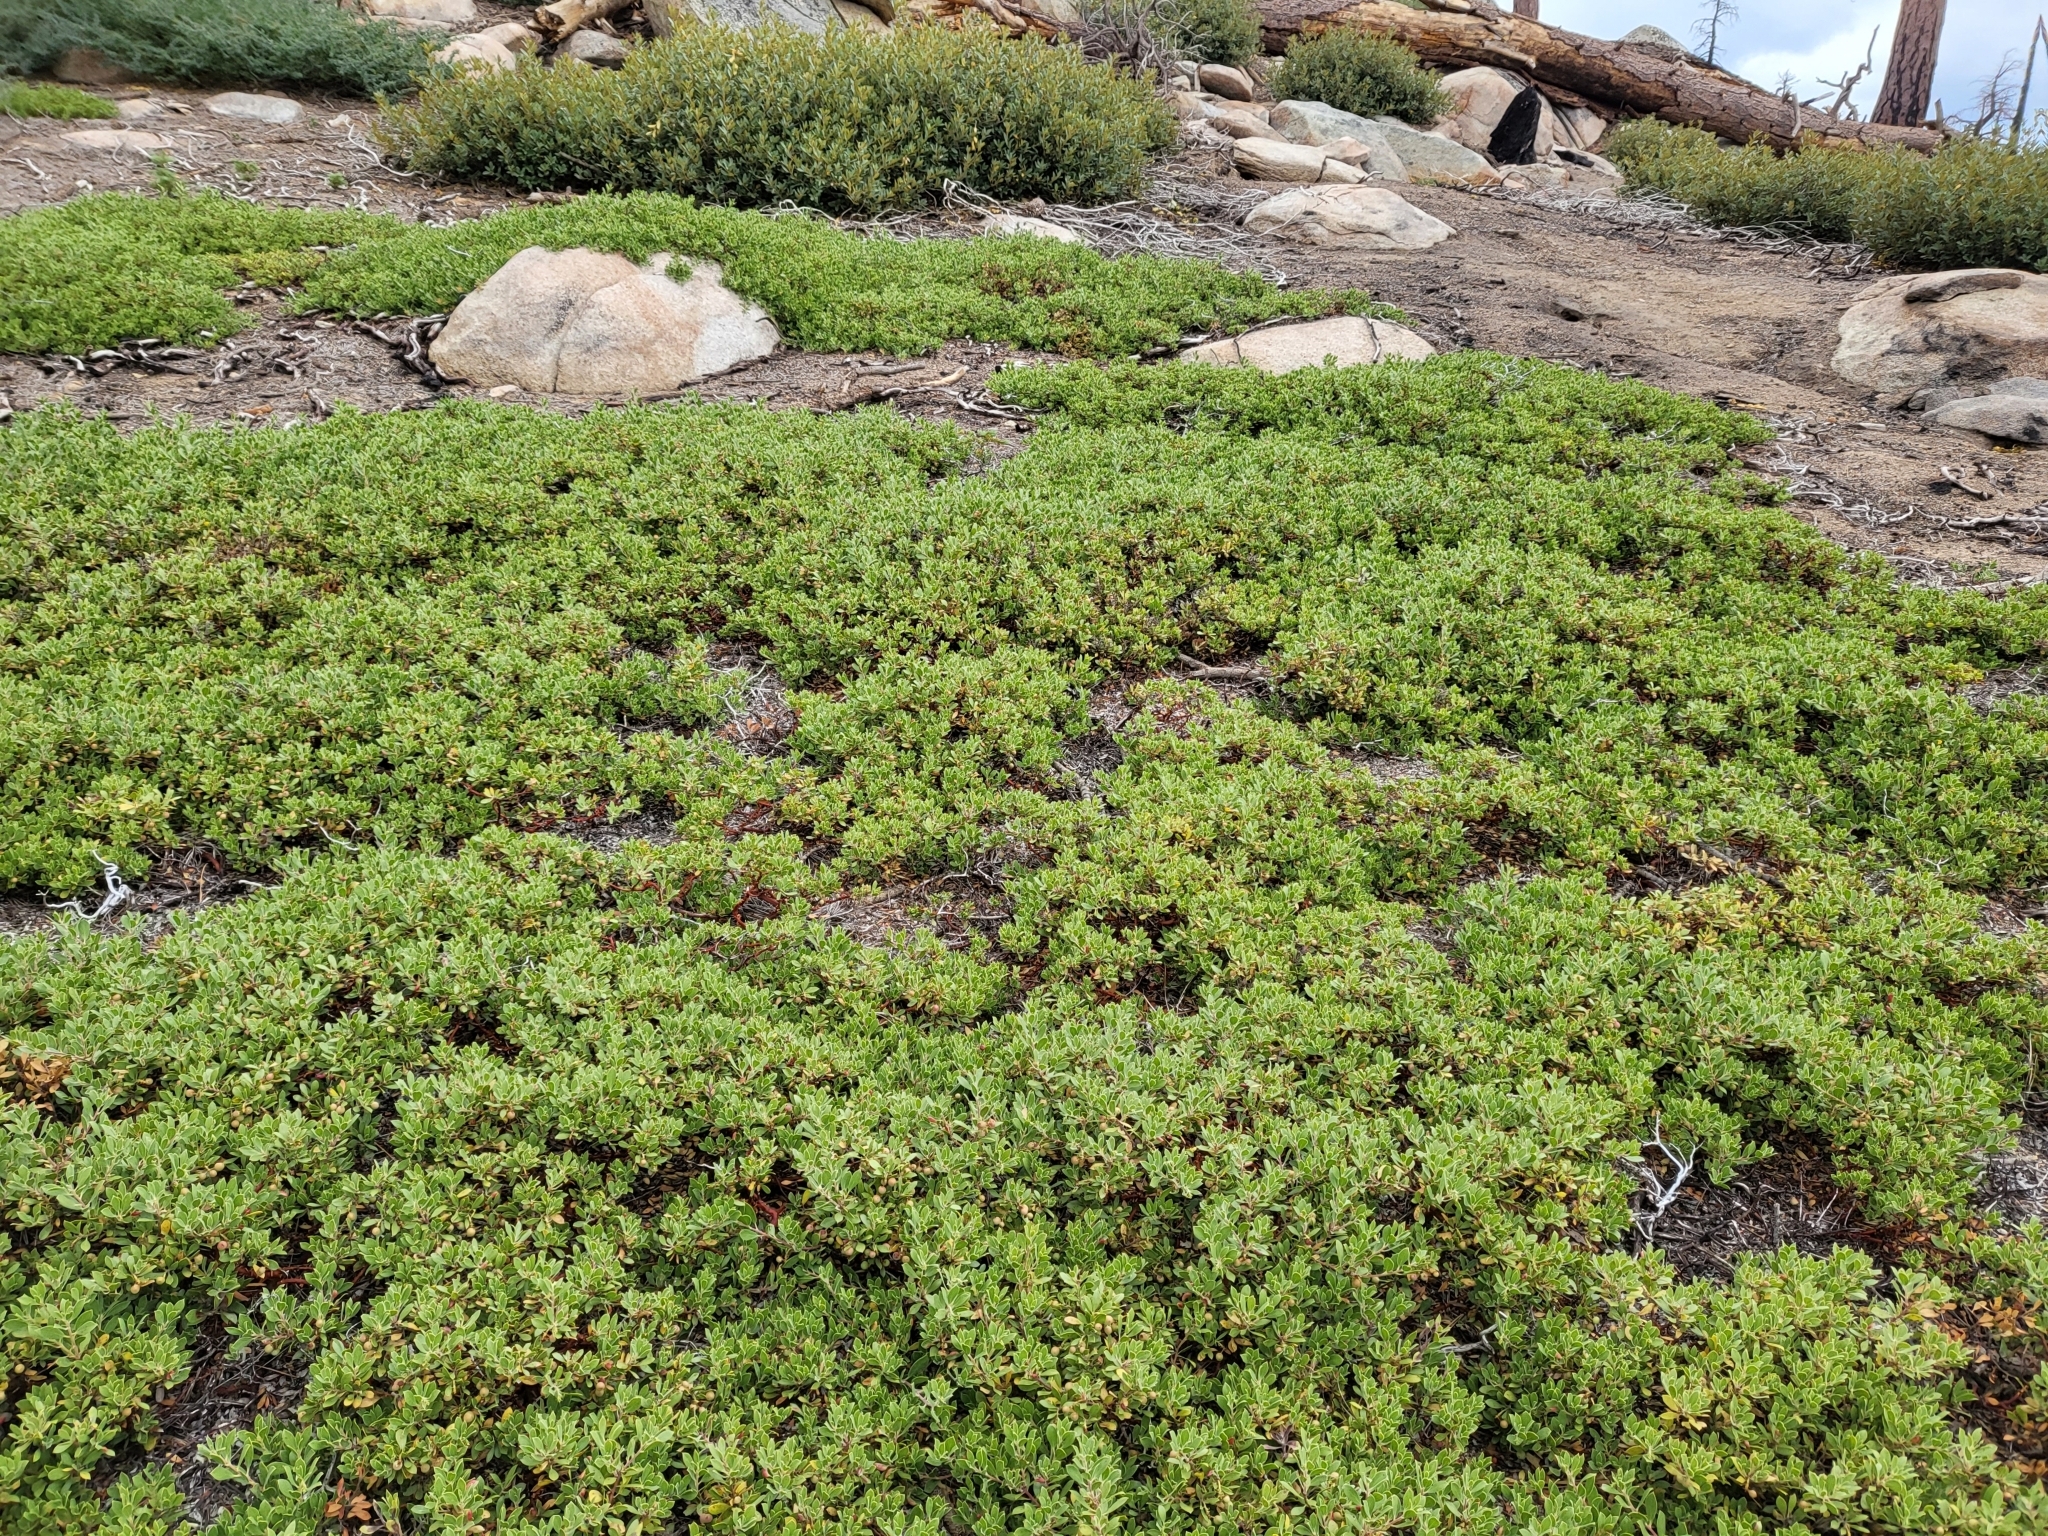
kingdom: Plantae
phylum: Tracheophyta
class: Magnoliopsida
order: Ericales
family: Ericaceae
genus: Arctostaphylos
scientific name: Arctostaphylos nevadensis
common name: Pinemat manzanita
